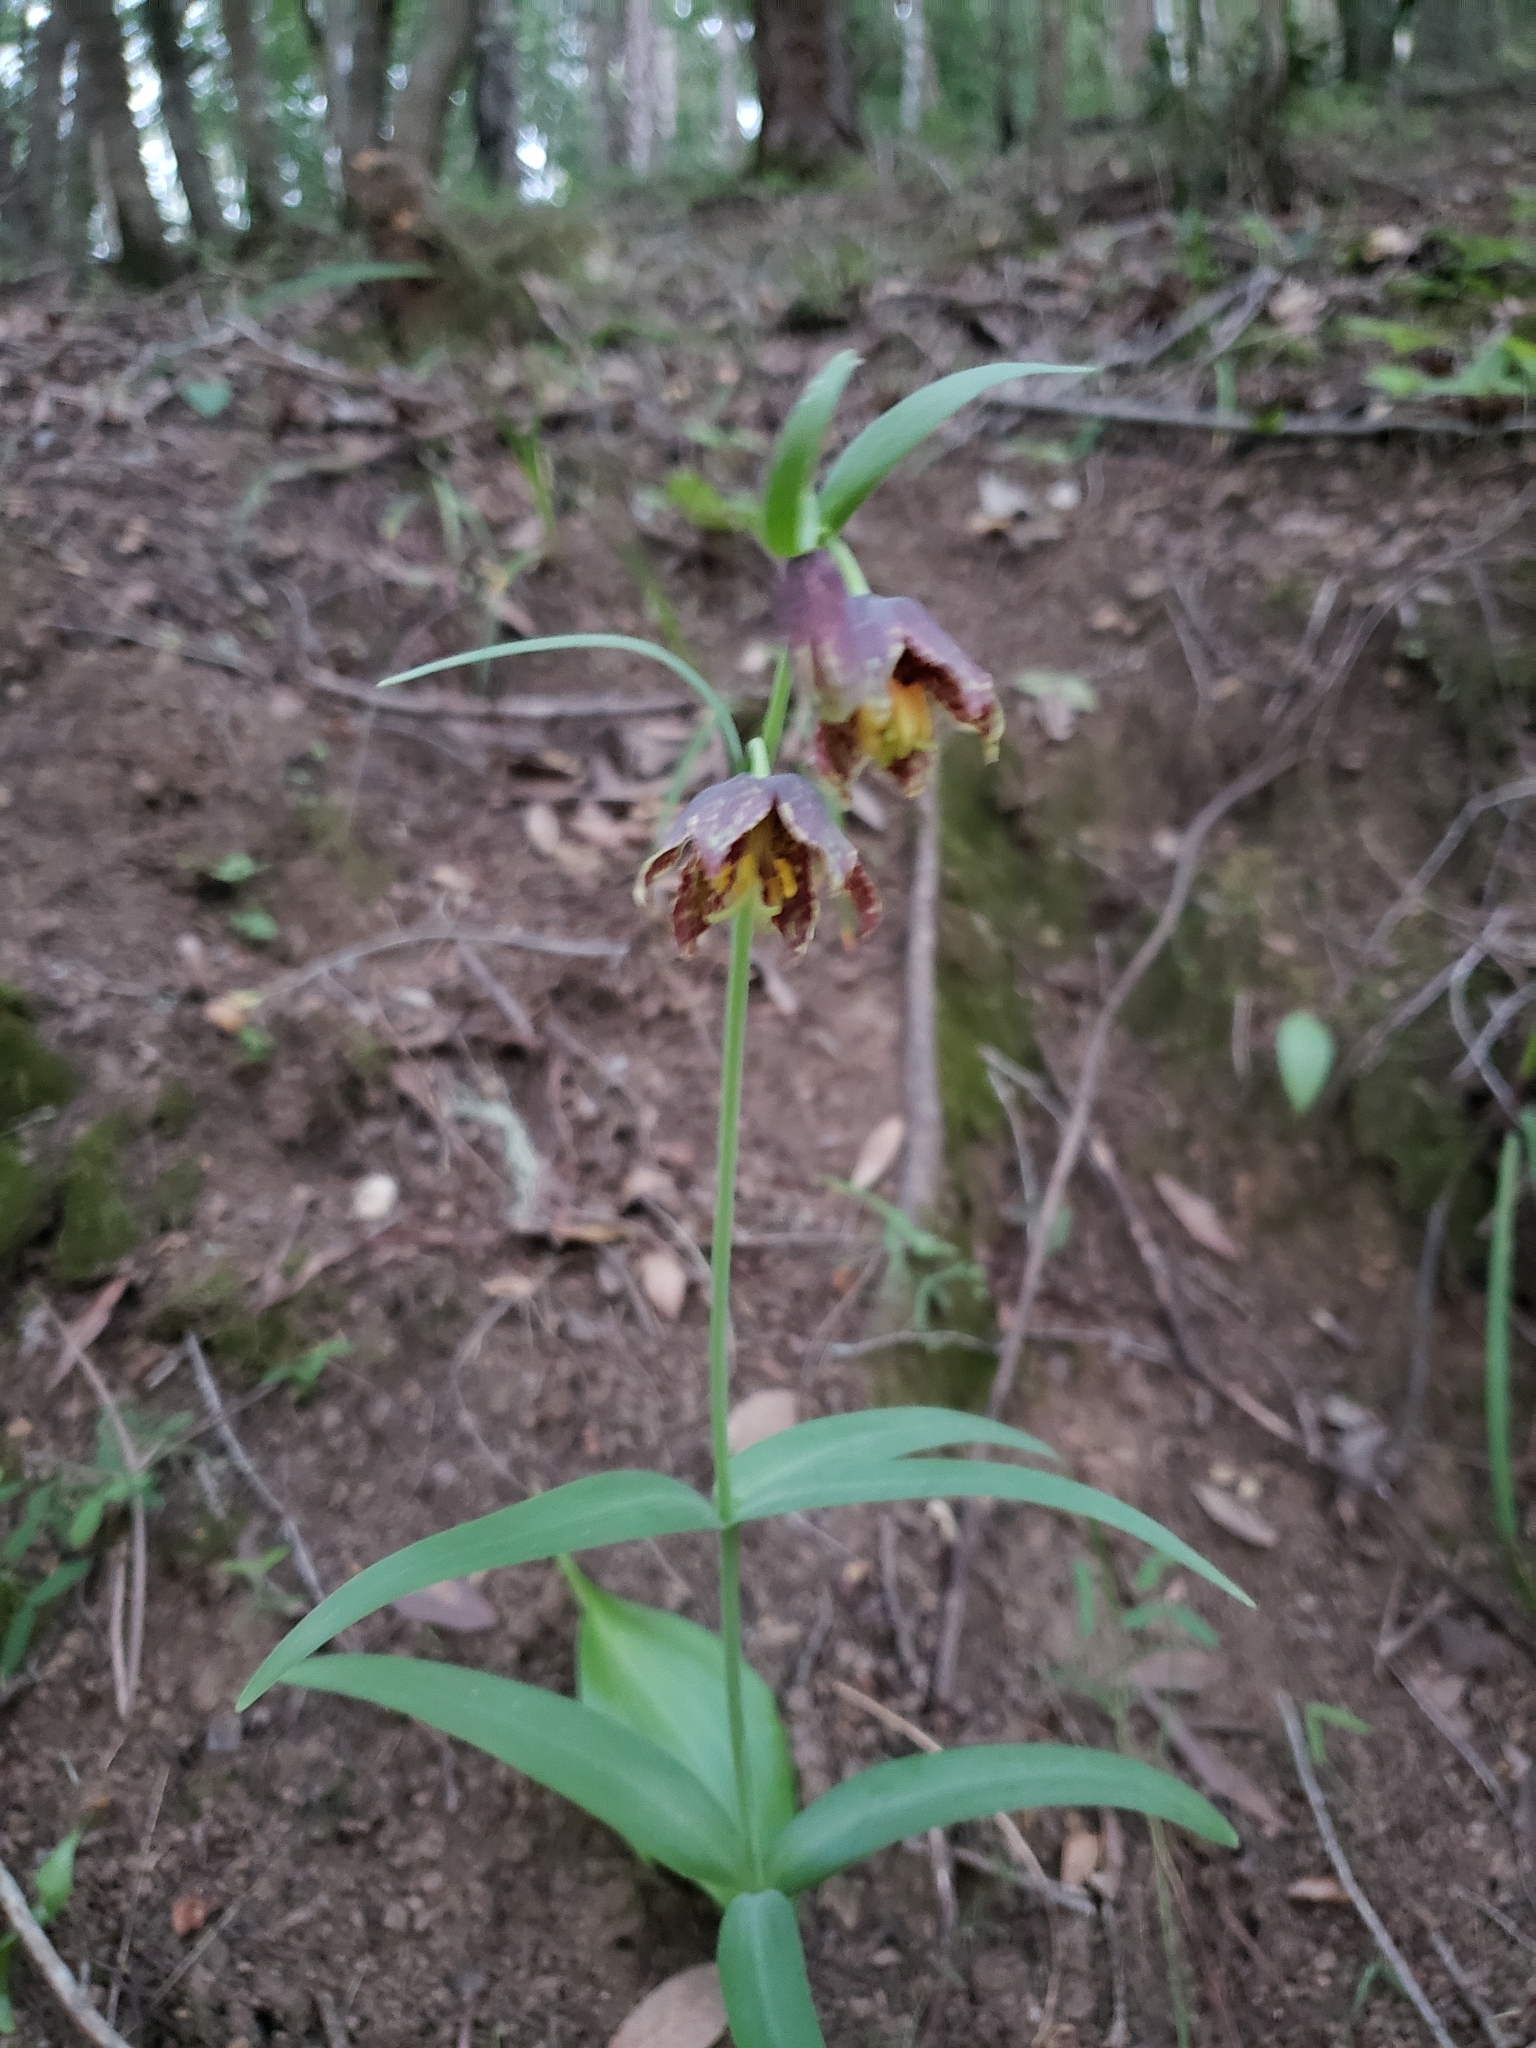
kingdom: Plantae
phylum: Tracheophyta
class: Liliopsida
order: Liliales
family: Liliaceae
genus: Fritillaria
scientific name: Fritillaria affinis
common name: Ojai fritillary
